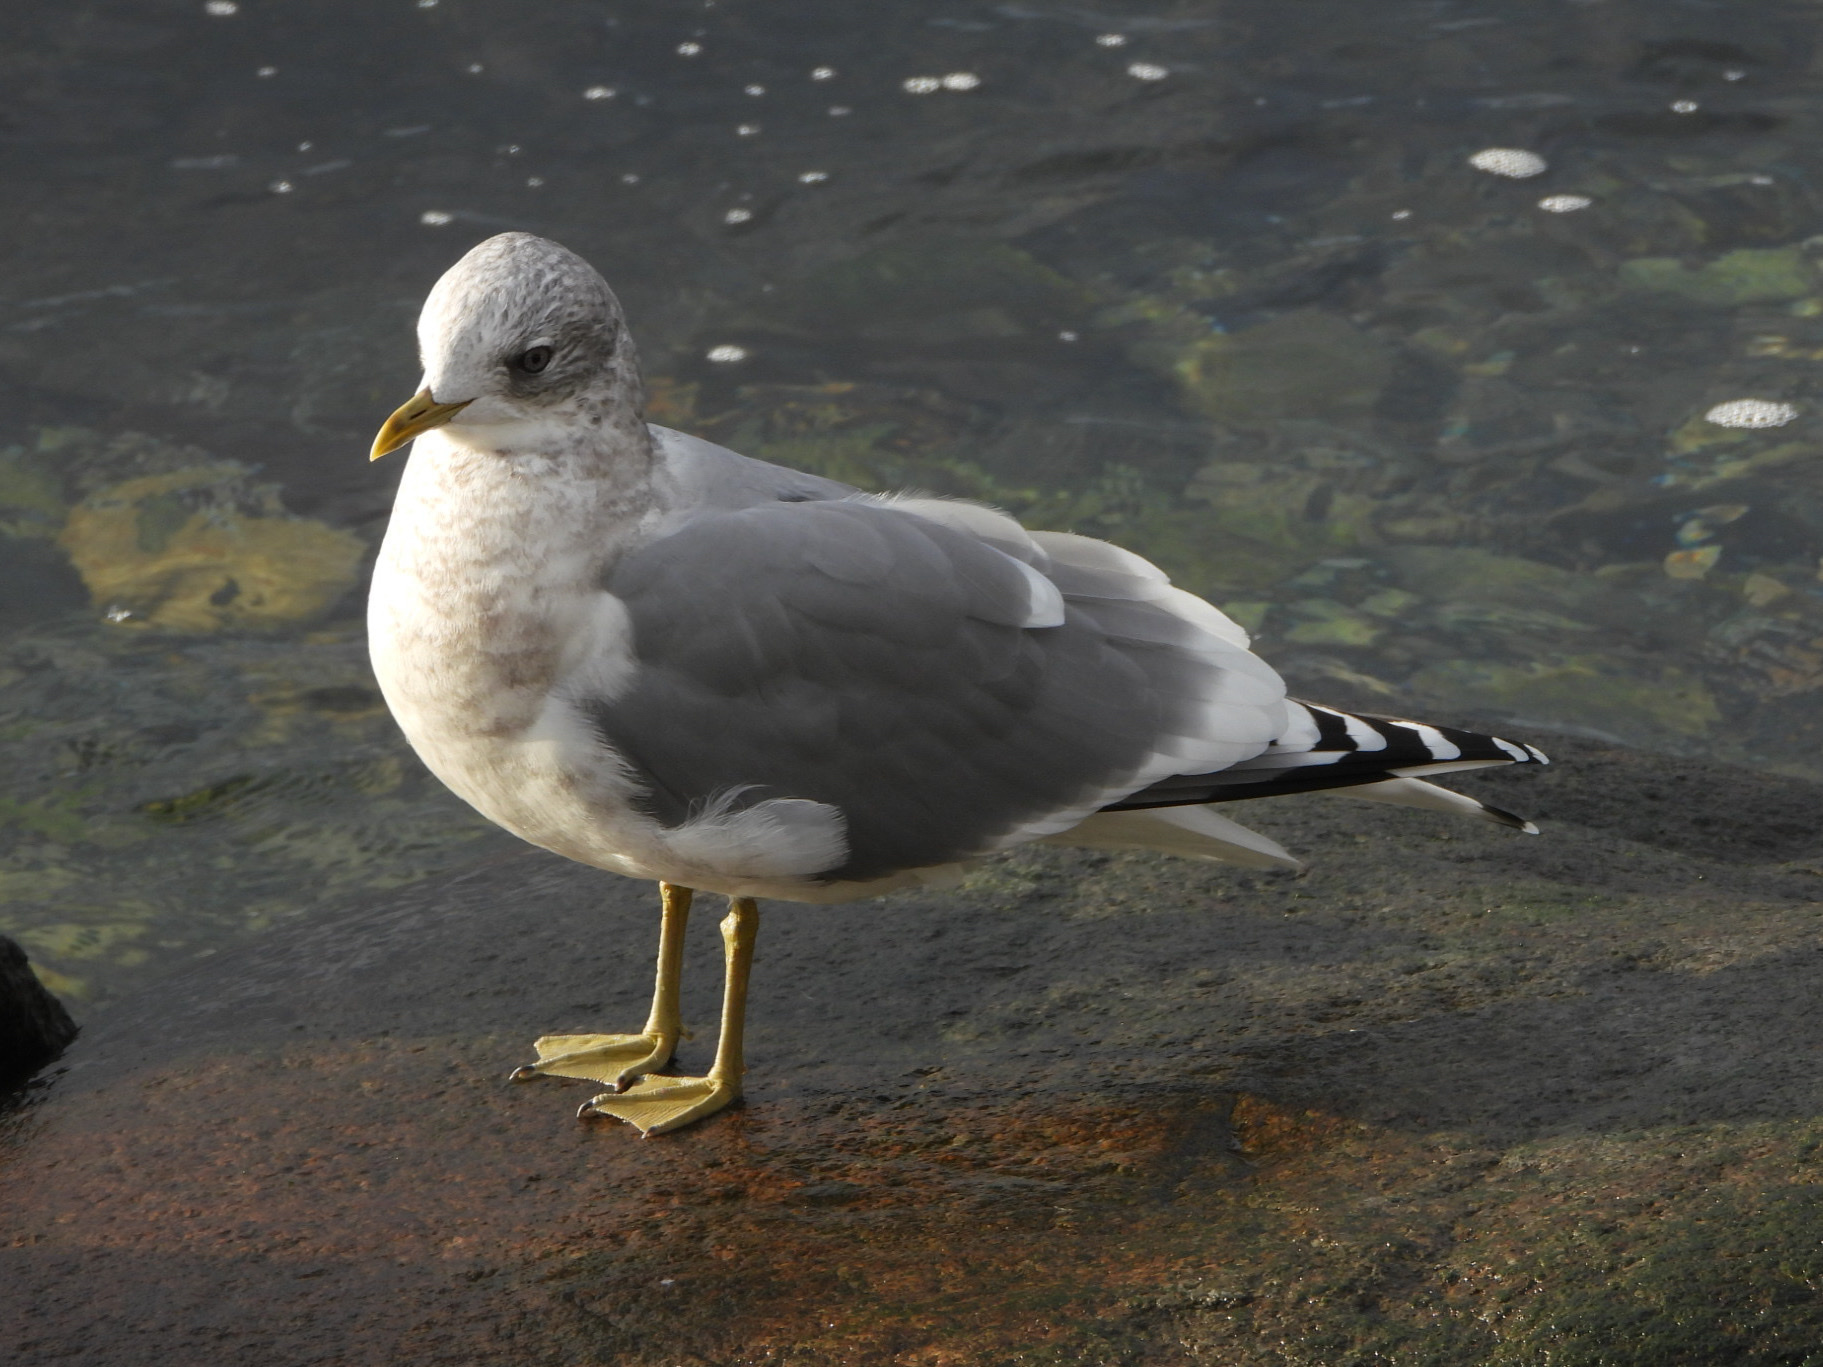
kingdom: Animalia
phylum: Chordata
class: Aves
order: Charadriiformes
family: Laridae
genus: Larus
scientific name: Larus brachyrhynchus
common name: Short-billed gull
